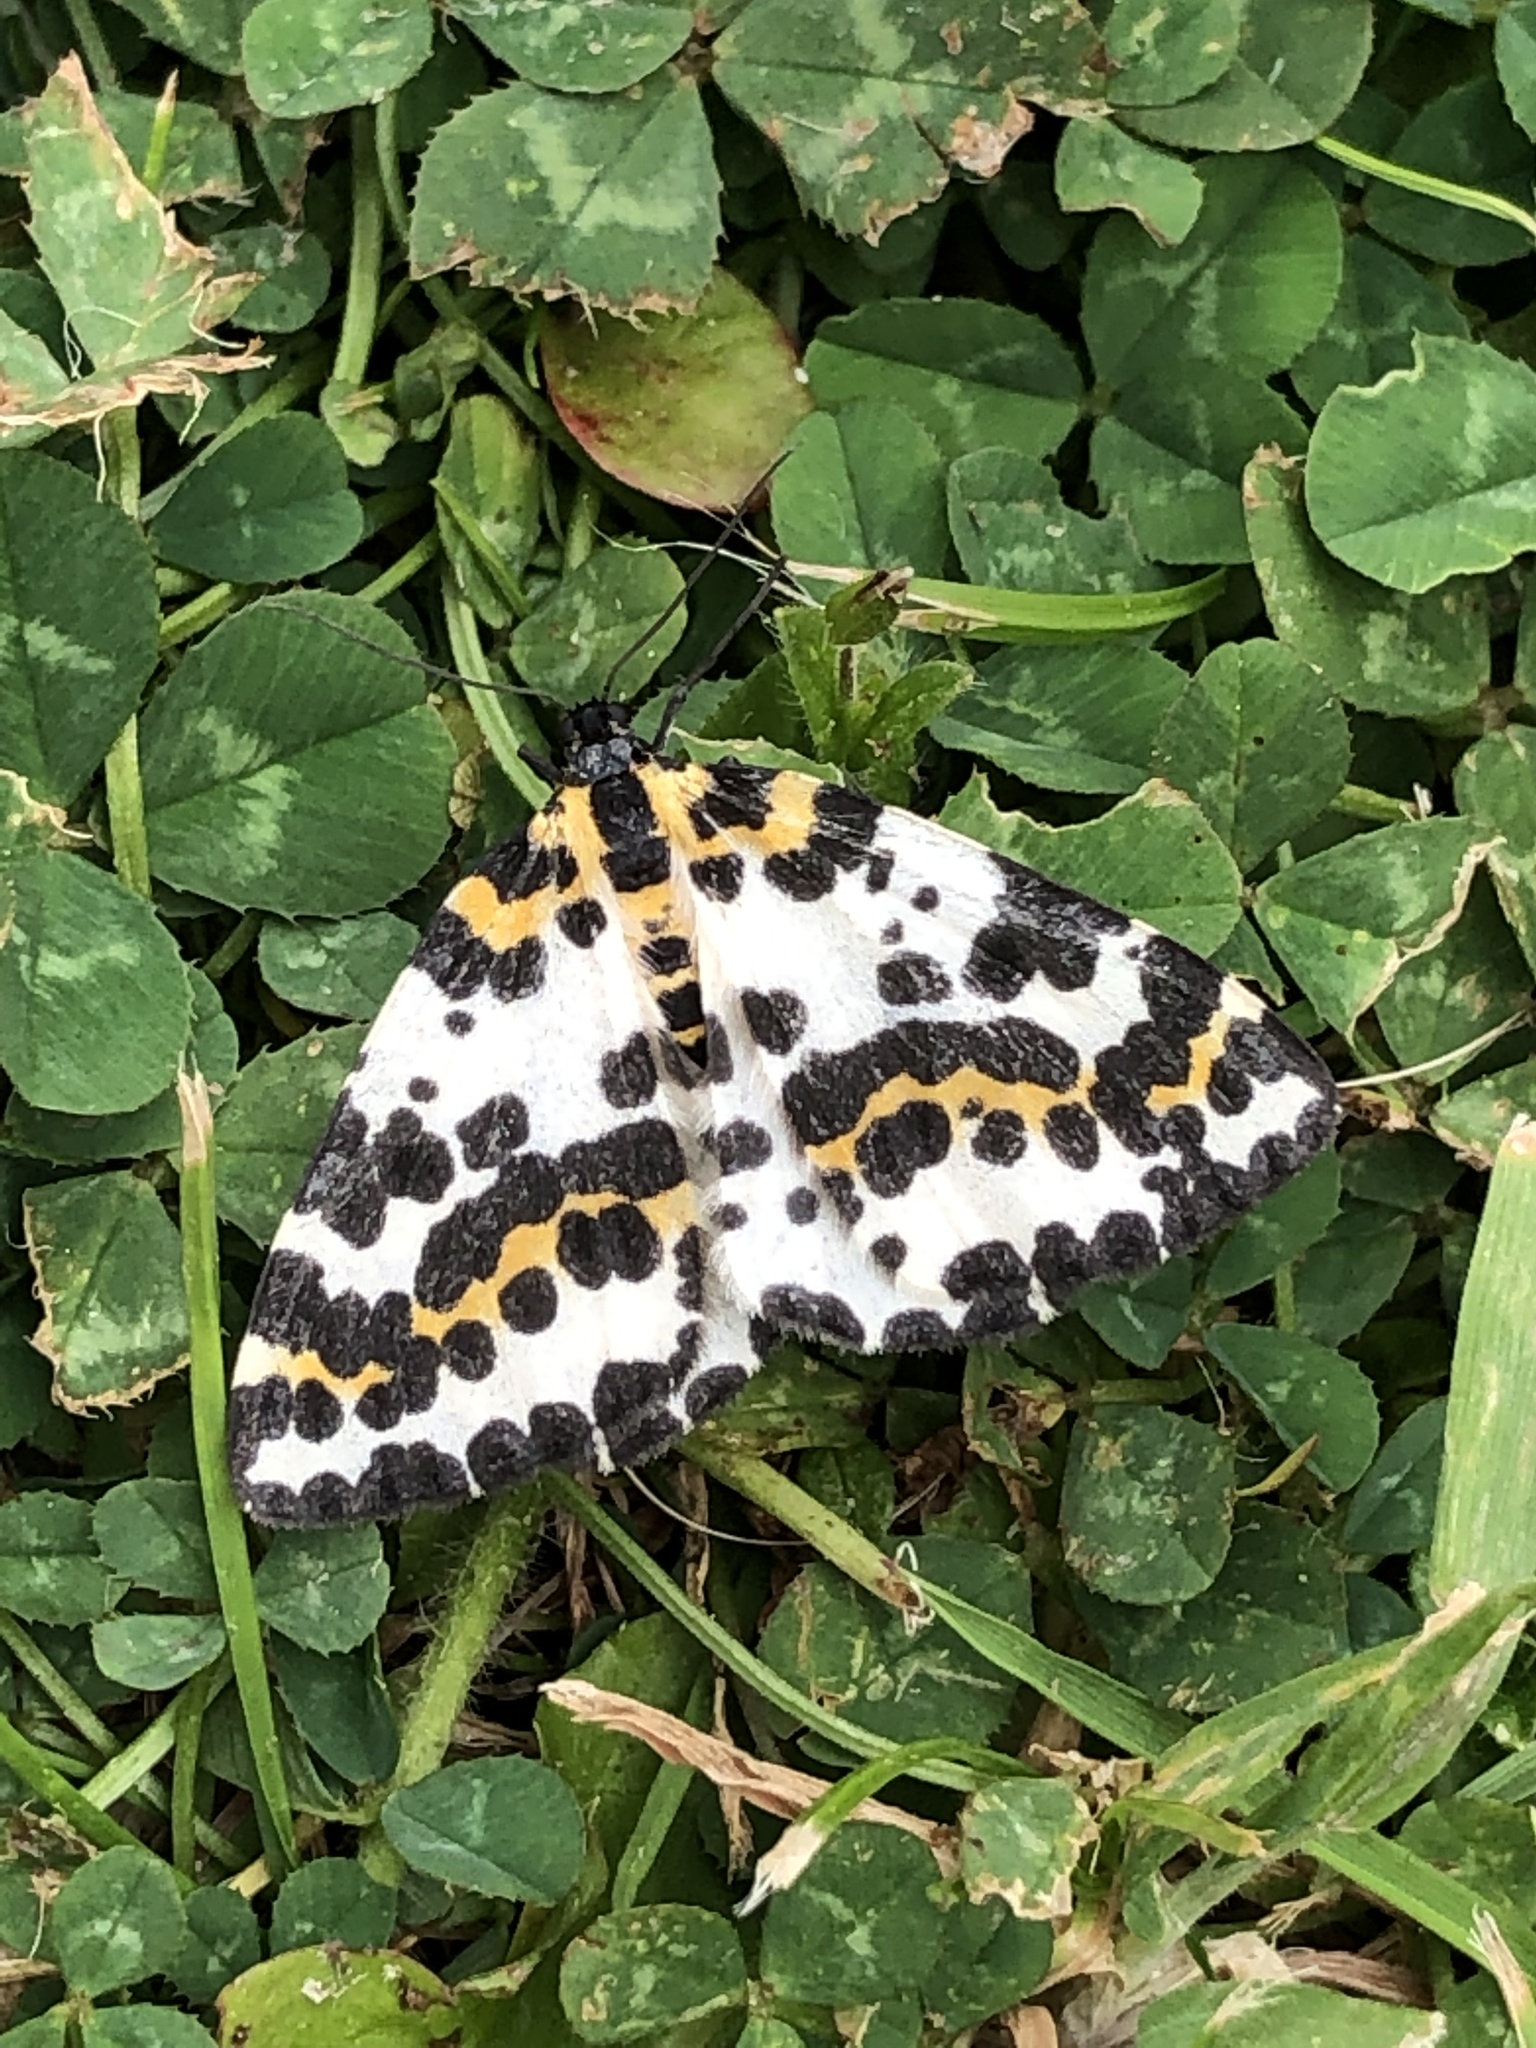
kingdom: Animalia
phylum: Arthropoda
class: Insecta
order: Lepidoptera
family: Geometridae
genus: Abraxas
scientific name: Abraxas grossulariata
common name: Magpie
